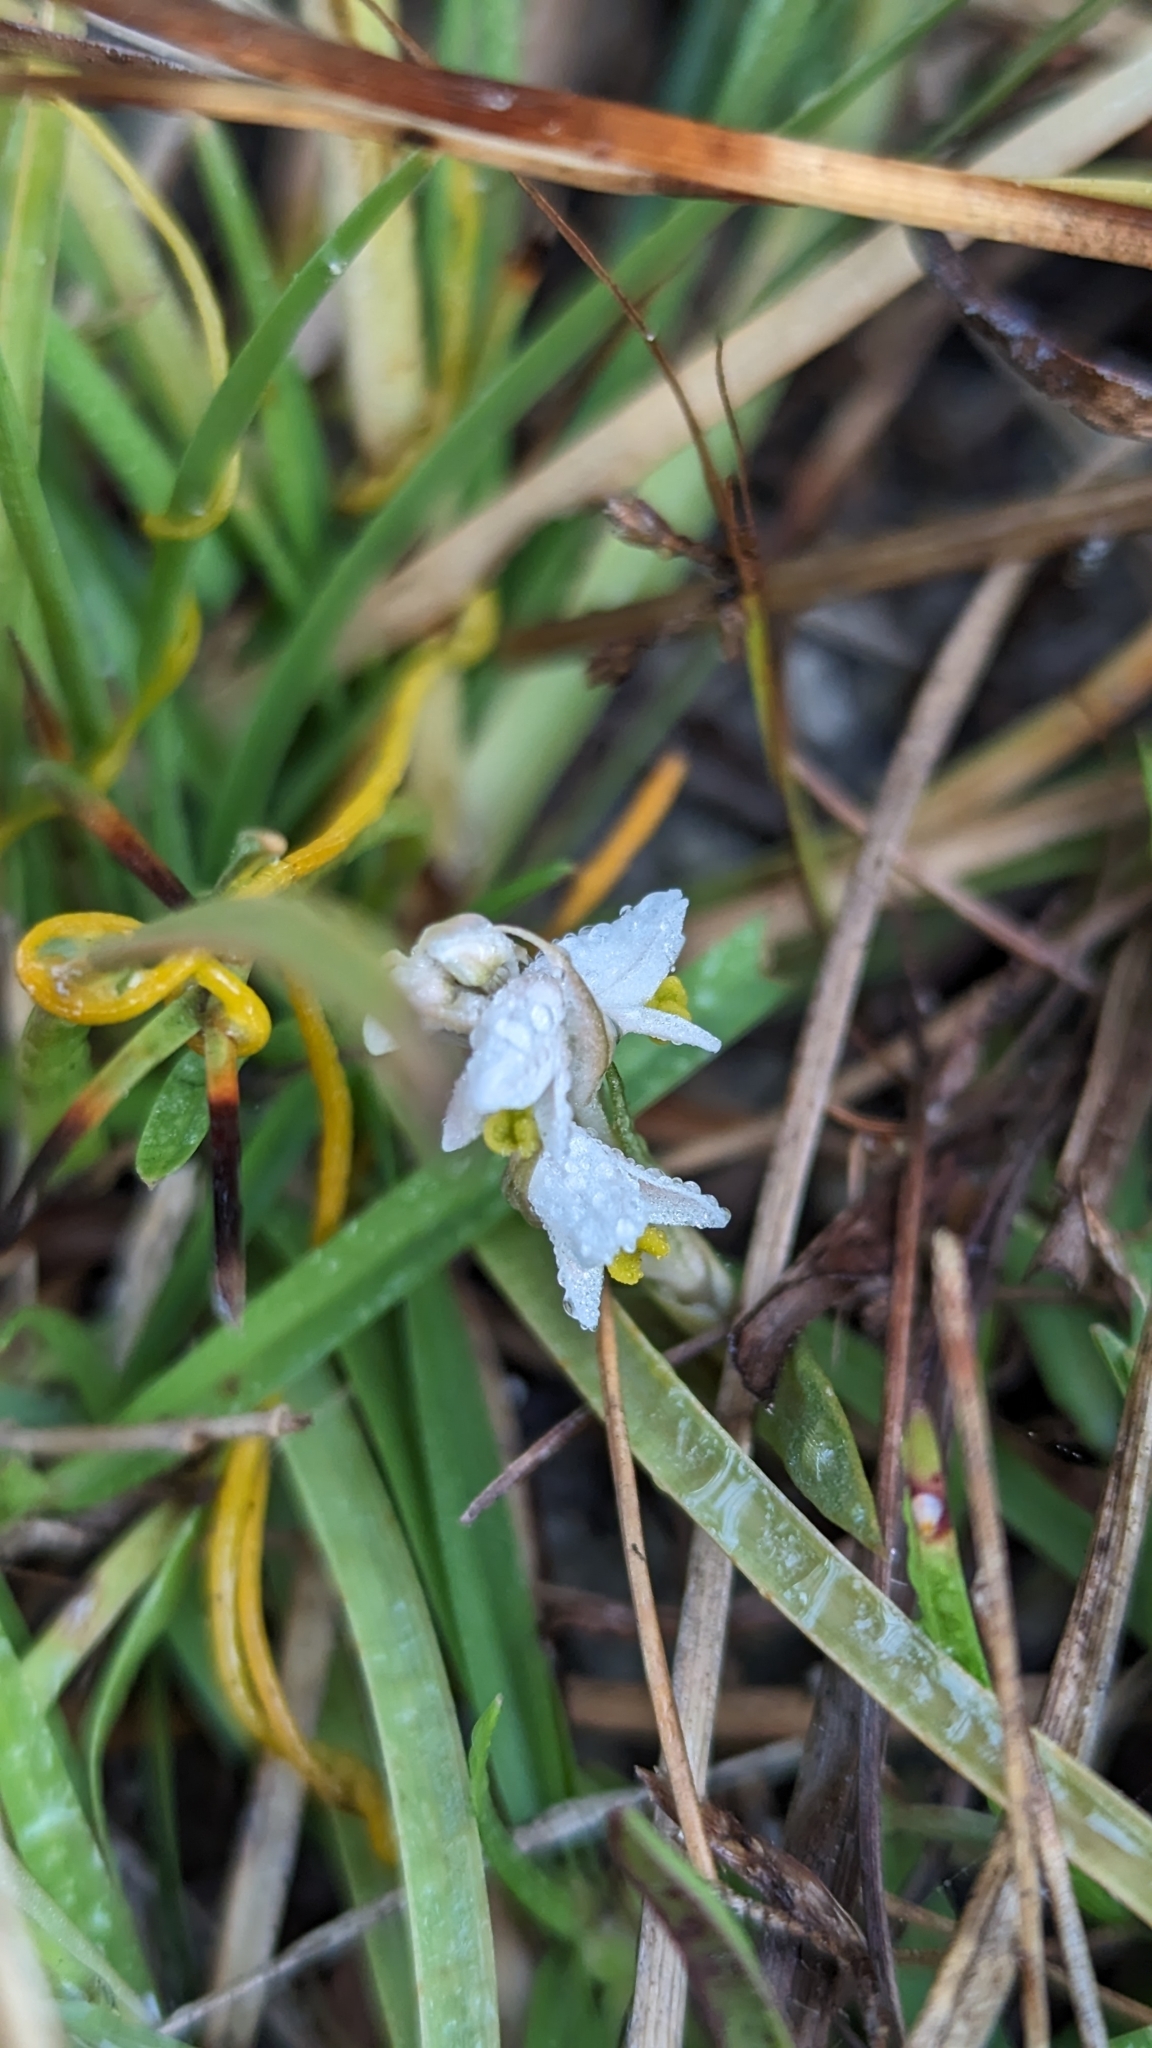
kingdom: Plantae
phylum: Tracheophyta
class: Liliopsida
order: Asparagales
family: Orchidaceae
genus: Zeuxine
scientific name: Zeuxine strateumatica
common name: Soldier's orchid
